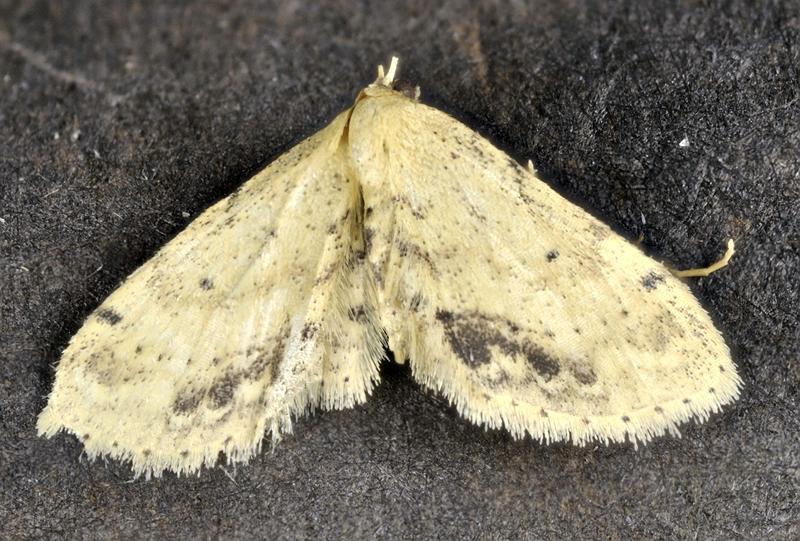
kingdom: Animalia
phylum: Arthropoda
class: Insecta
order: Lepidoptera
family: Geometridae
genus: Idaea
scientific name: Idaea dimidiata
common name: Single-dotted wave
